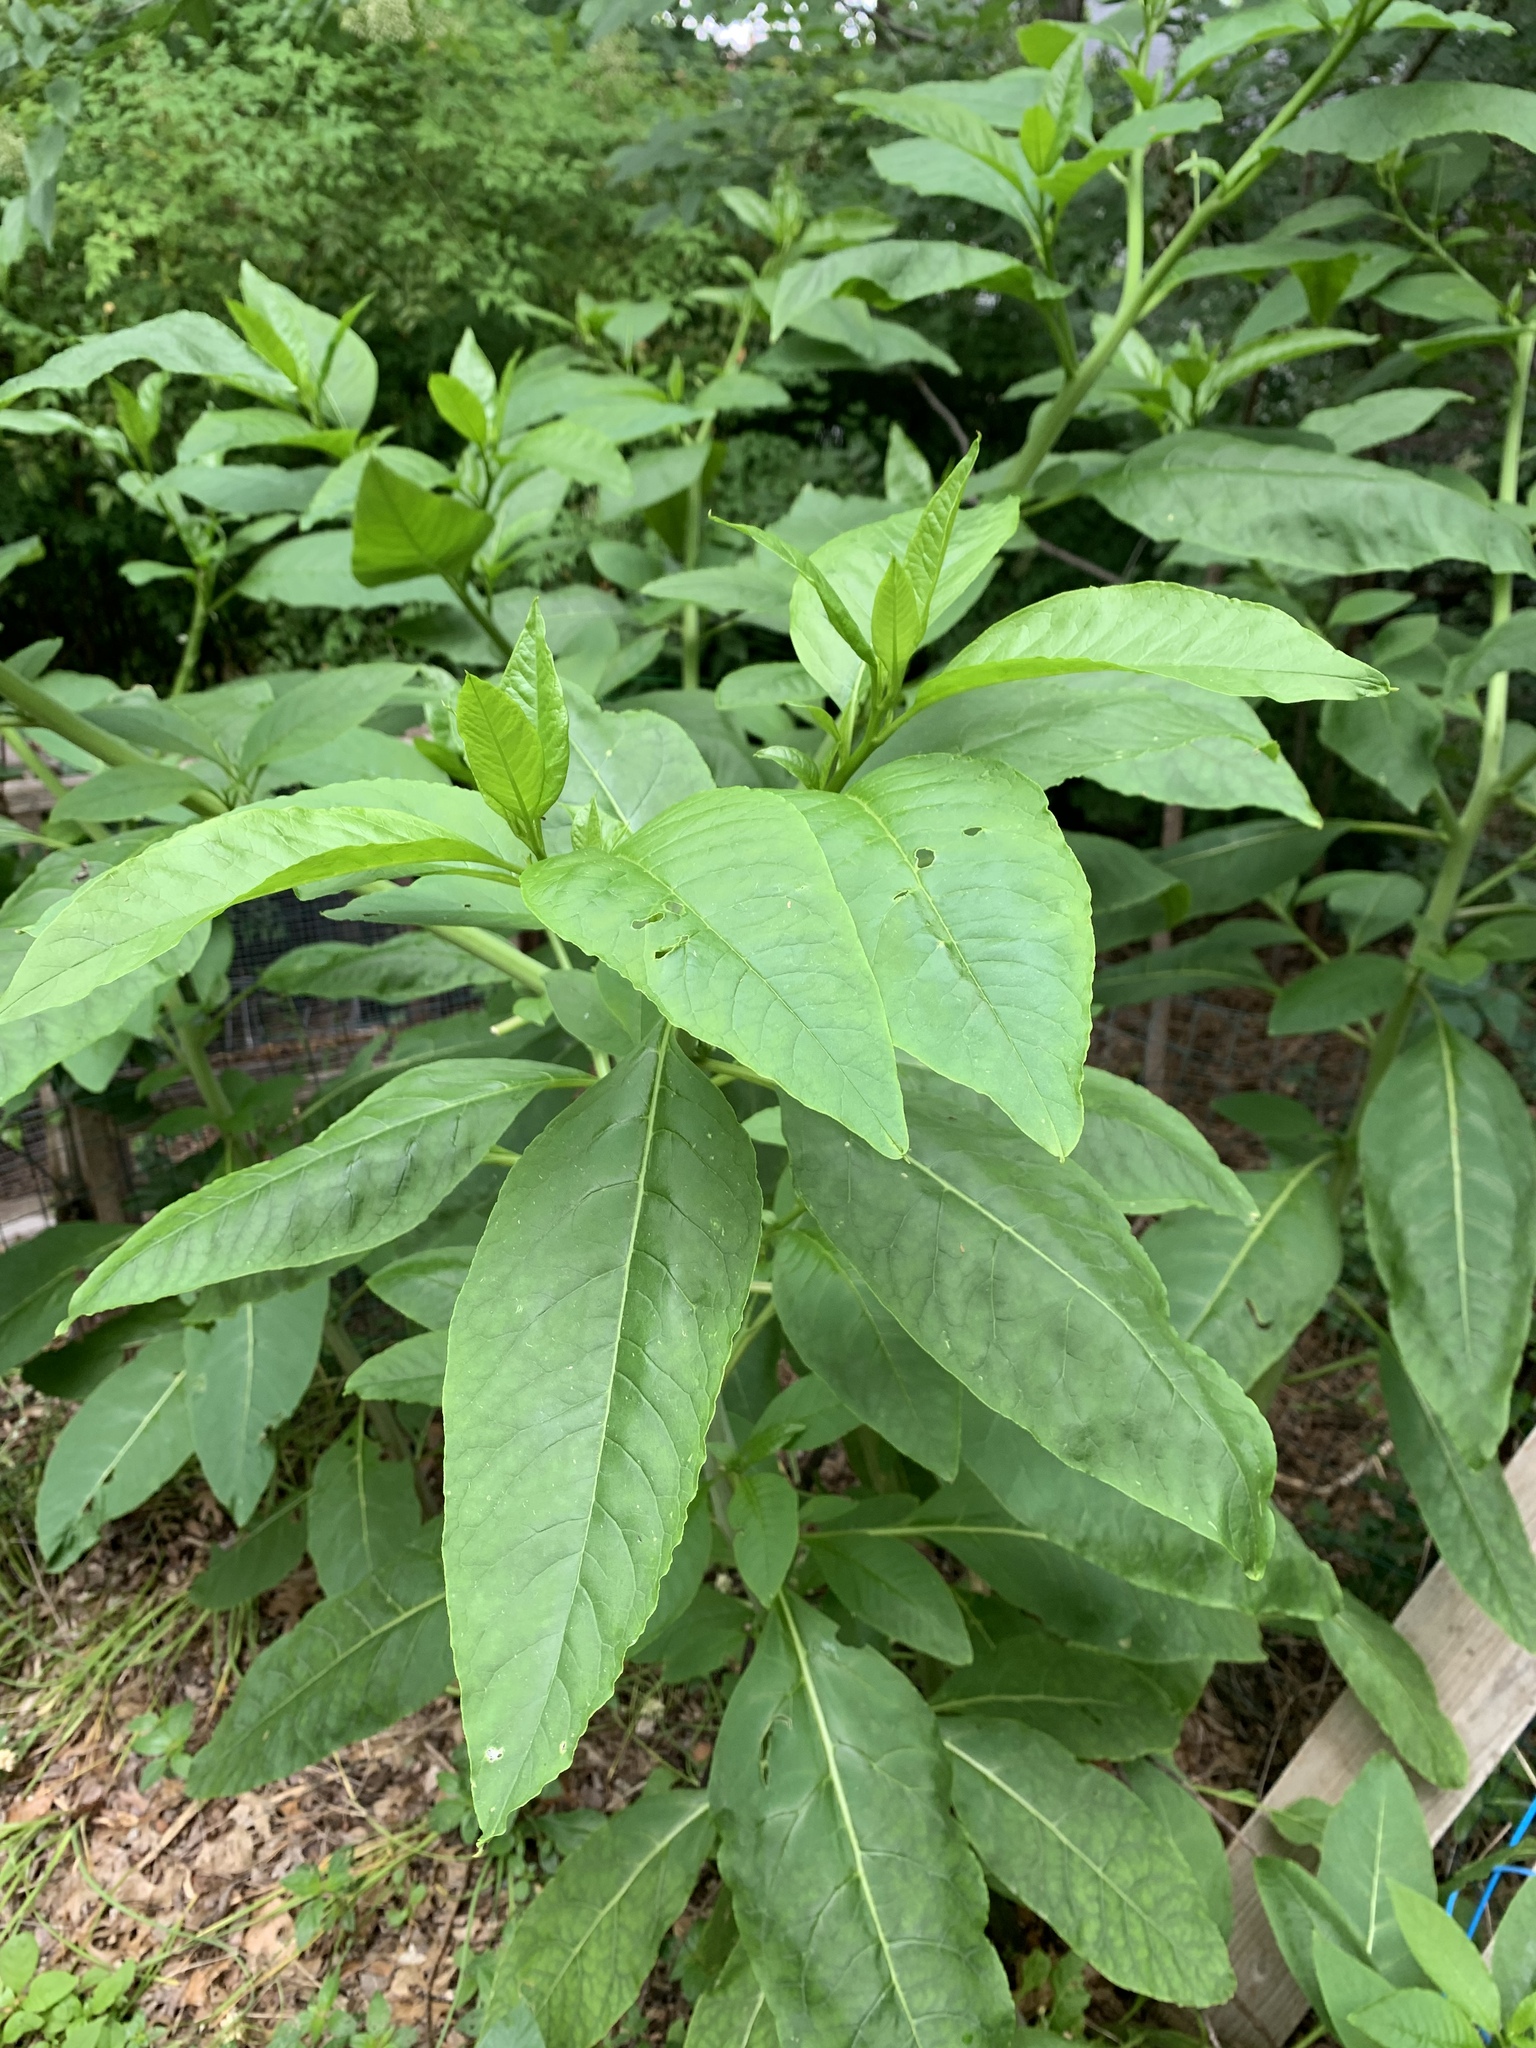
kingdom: Plantae
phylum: Tracheophyta
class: Magnoliopsida
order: Caryophyllales
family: Phytolaccaceae
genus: Phytolacca
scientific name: Phytolacca americana
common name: American pokeweed
